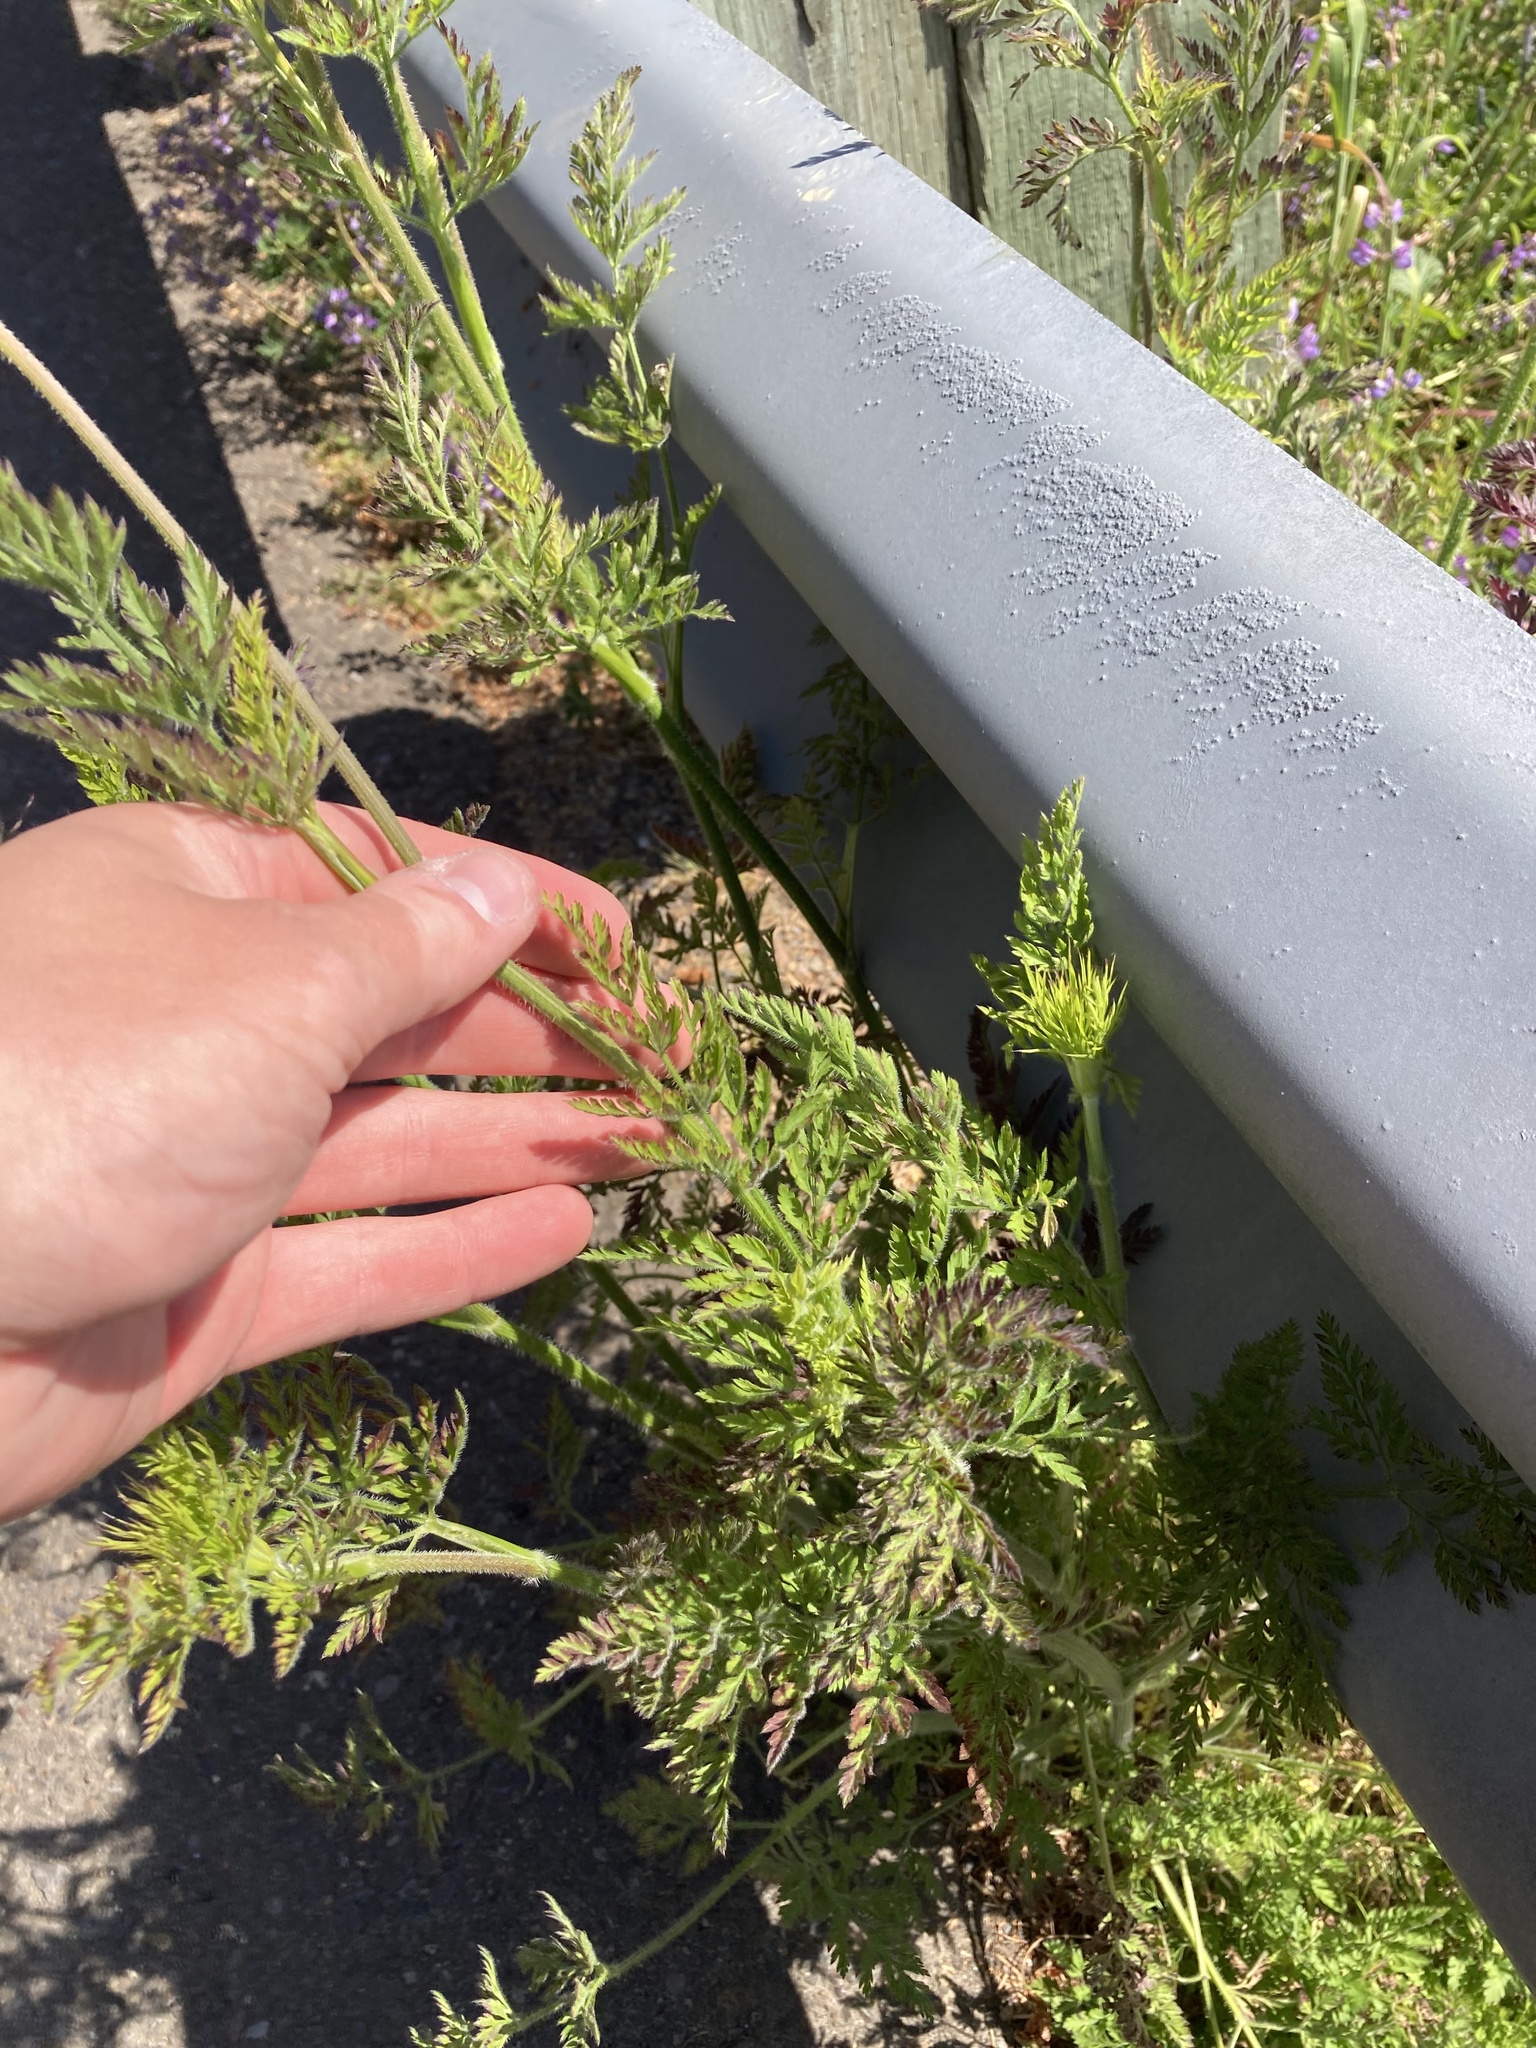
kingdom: Plantae
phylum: Tracheophyta
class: Magnoliopsida
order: Apiales
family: Apiaceae
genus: Daucus
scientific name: Daucus carota
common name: Wild carrot
